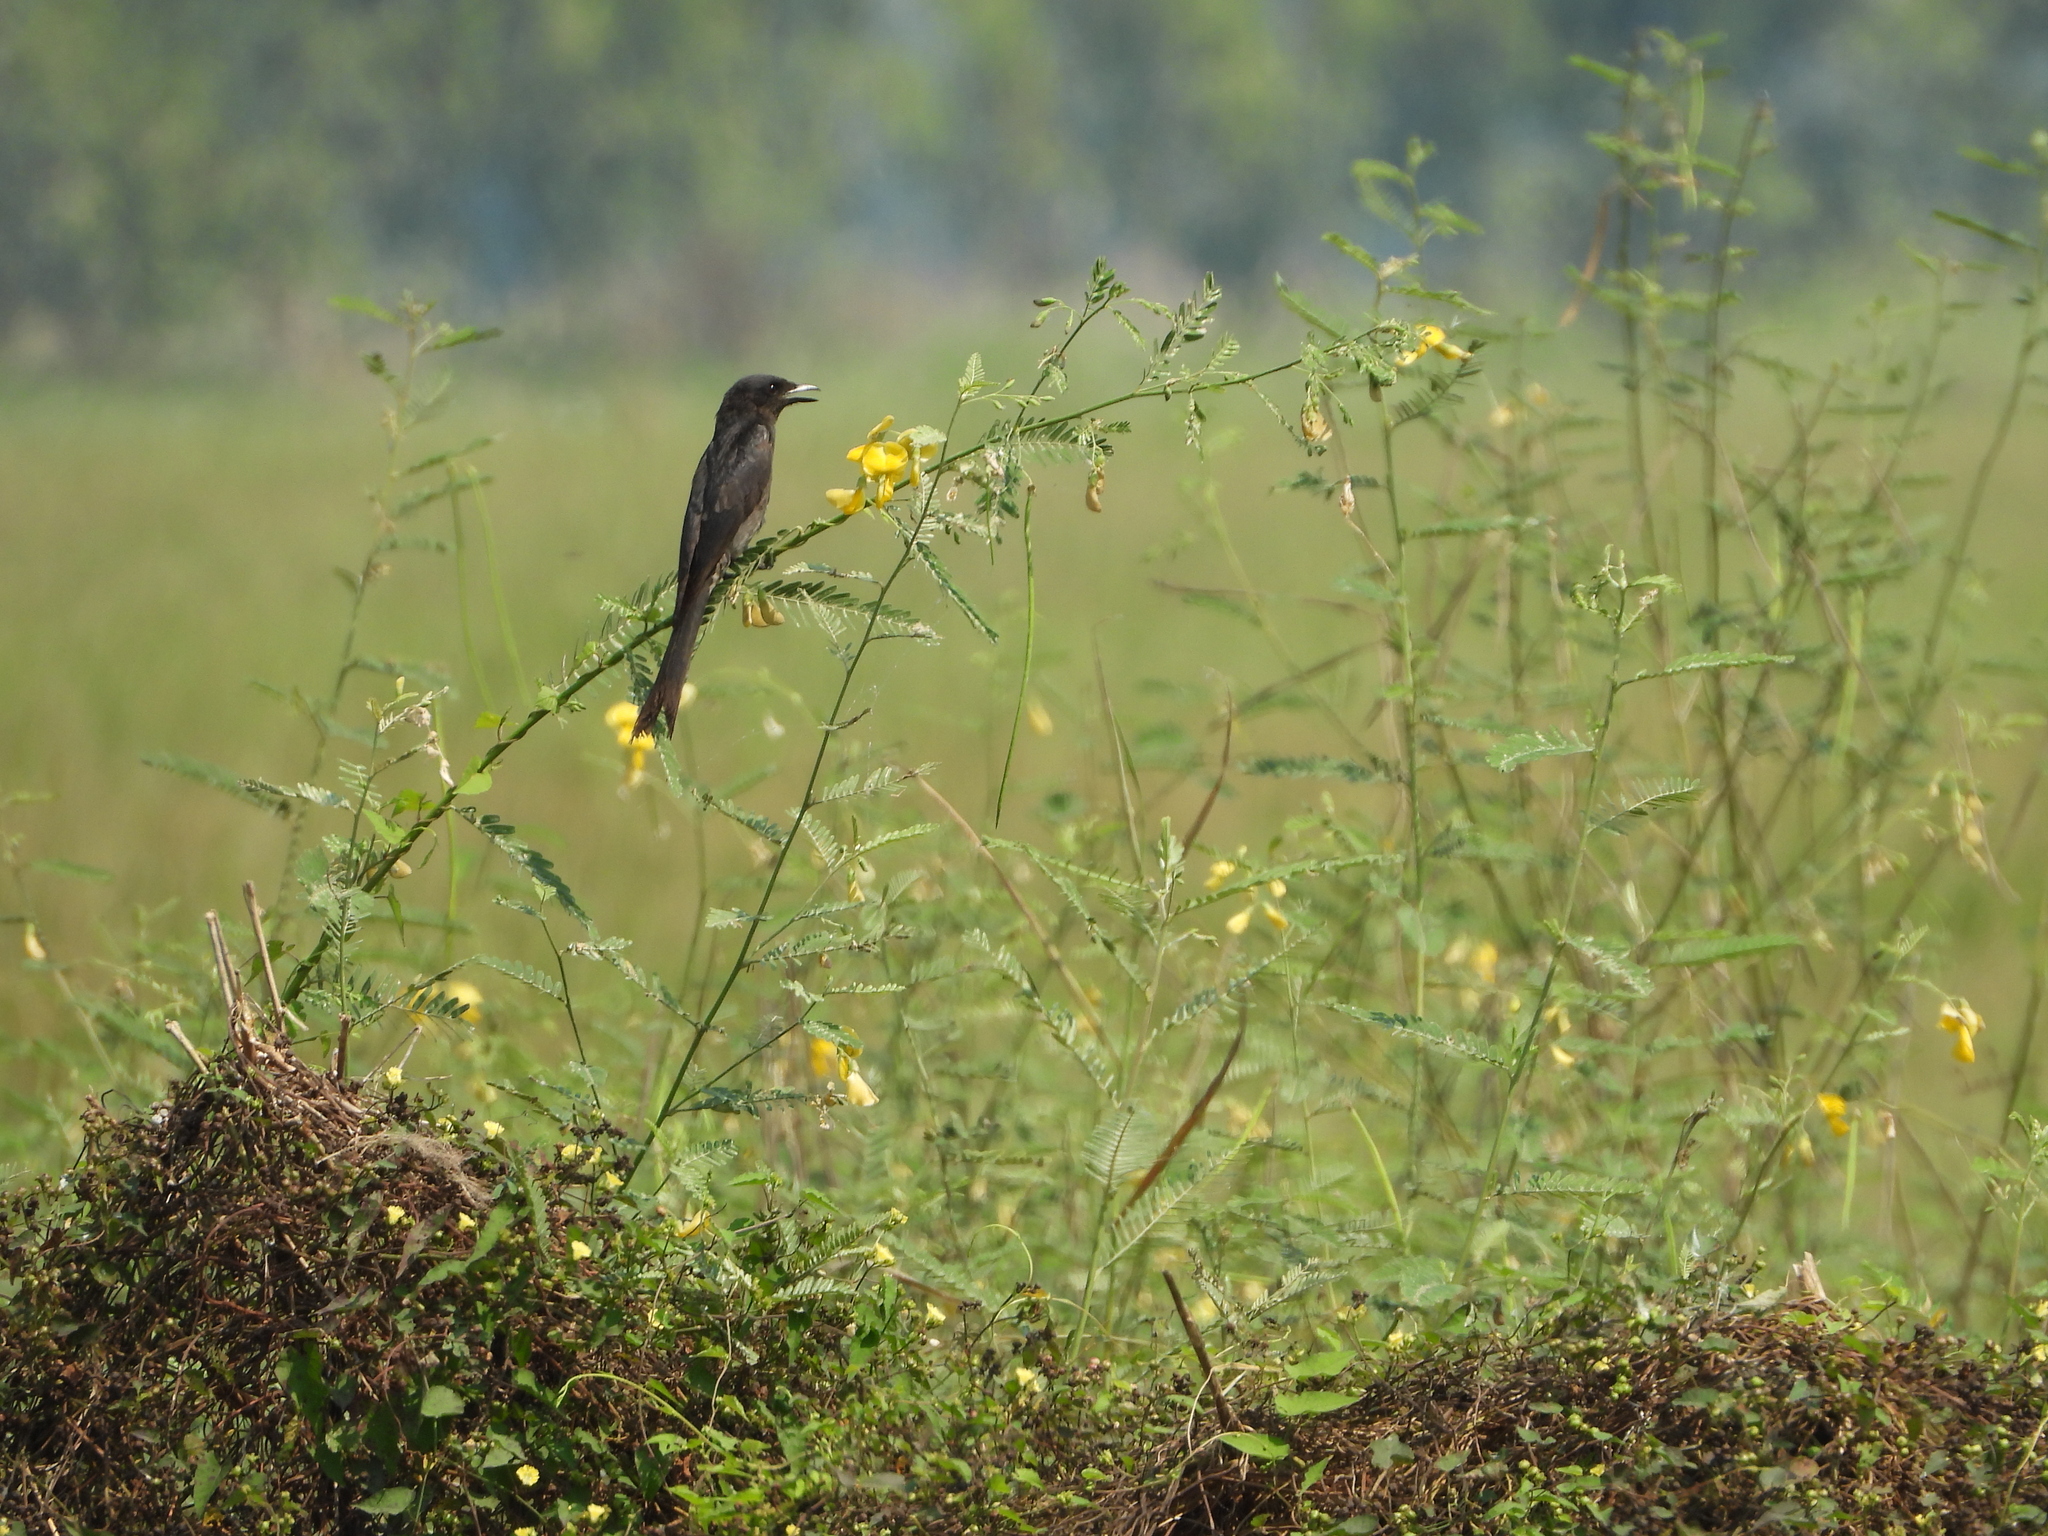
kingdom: Animalia
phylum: Chordata
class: Aves
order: Passeriformes
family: Dicruridae
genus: Dicrurus
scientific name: Dicrurus macrocercus
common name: Black drongo
